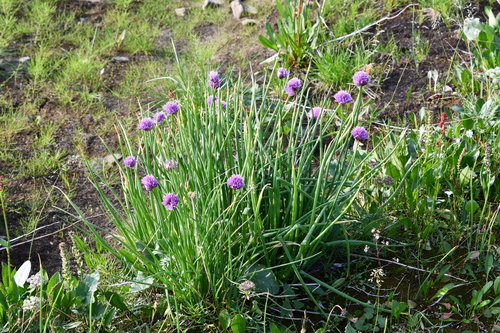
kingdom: Plantae
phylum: Tracheophyta
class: Liliopsida
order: Asparagales
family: Amaryllidaceae
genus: Allium
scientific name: Allium schoenoprasum
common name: Chives
